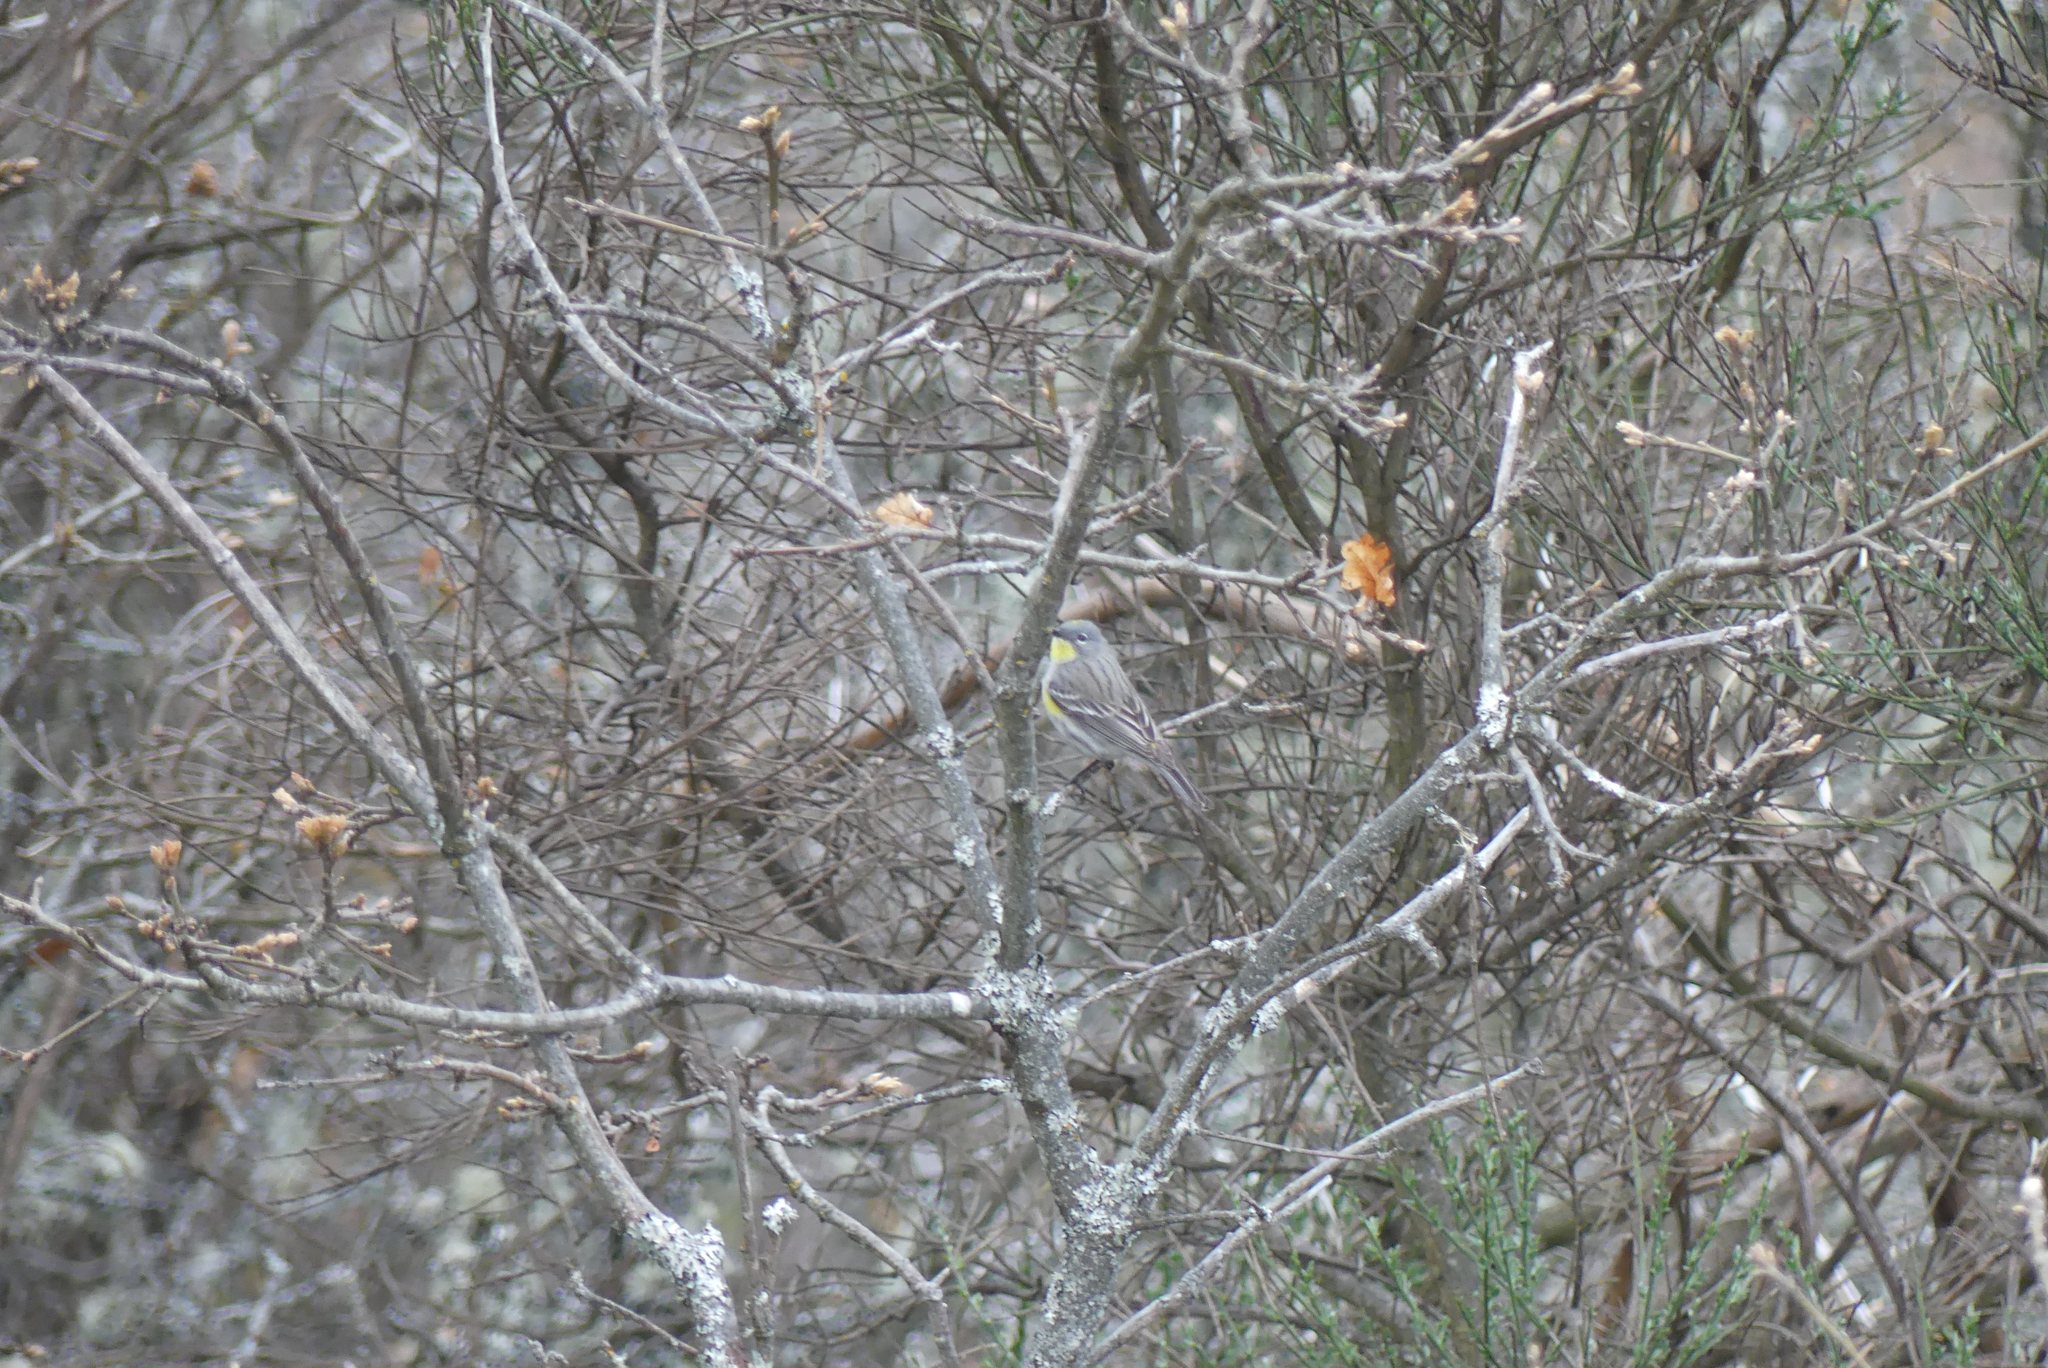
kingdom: Animalia
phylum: Chordata
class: Aves
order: Passeriformes
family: Parulidae
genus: Setophaga
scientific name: Setophaga coronata
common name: Myrtle warbler
